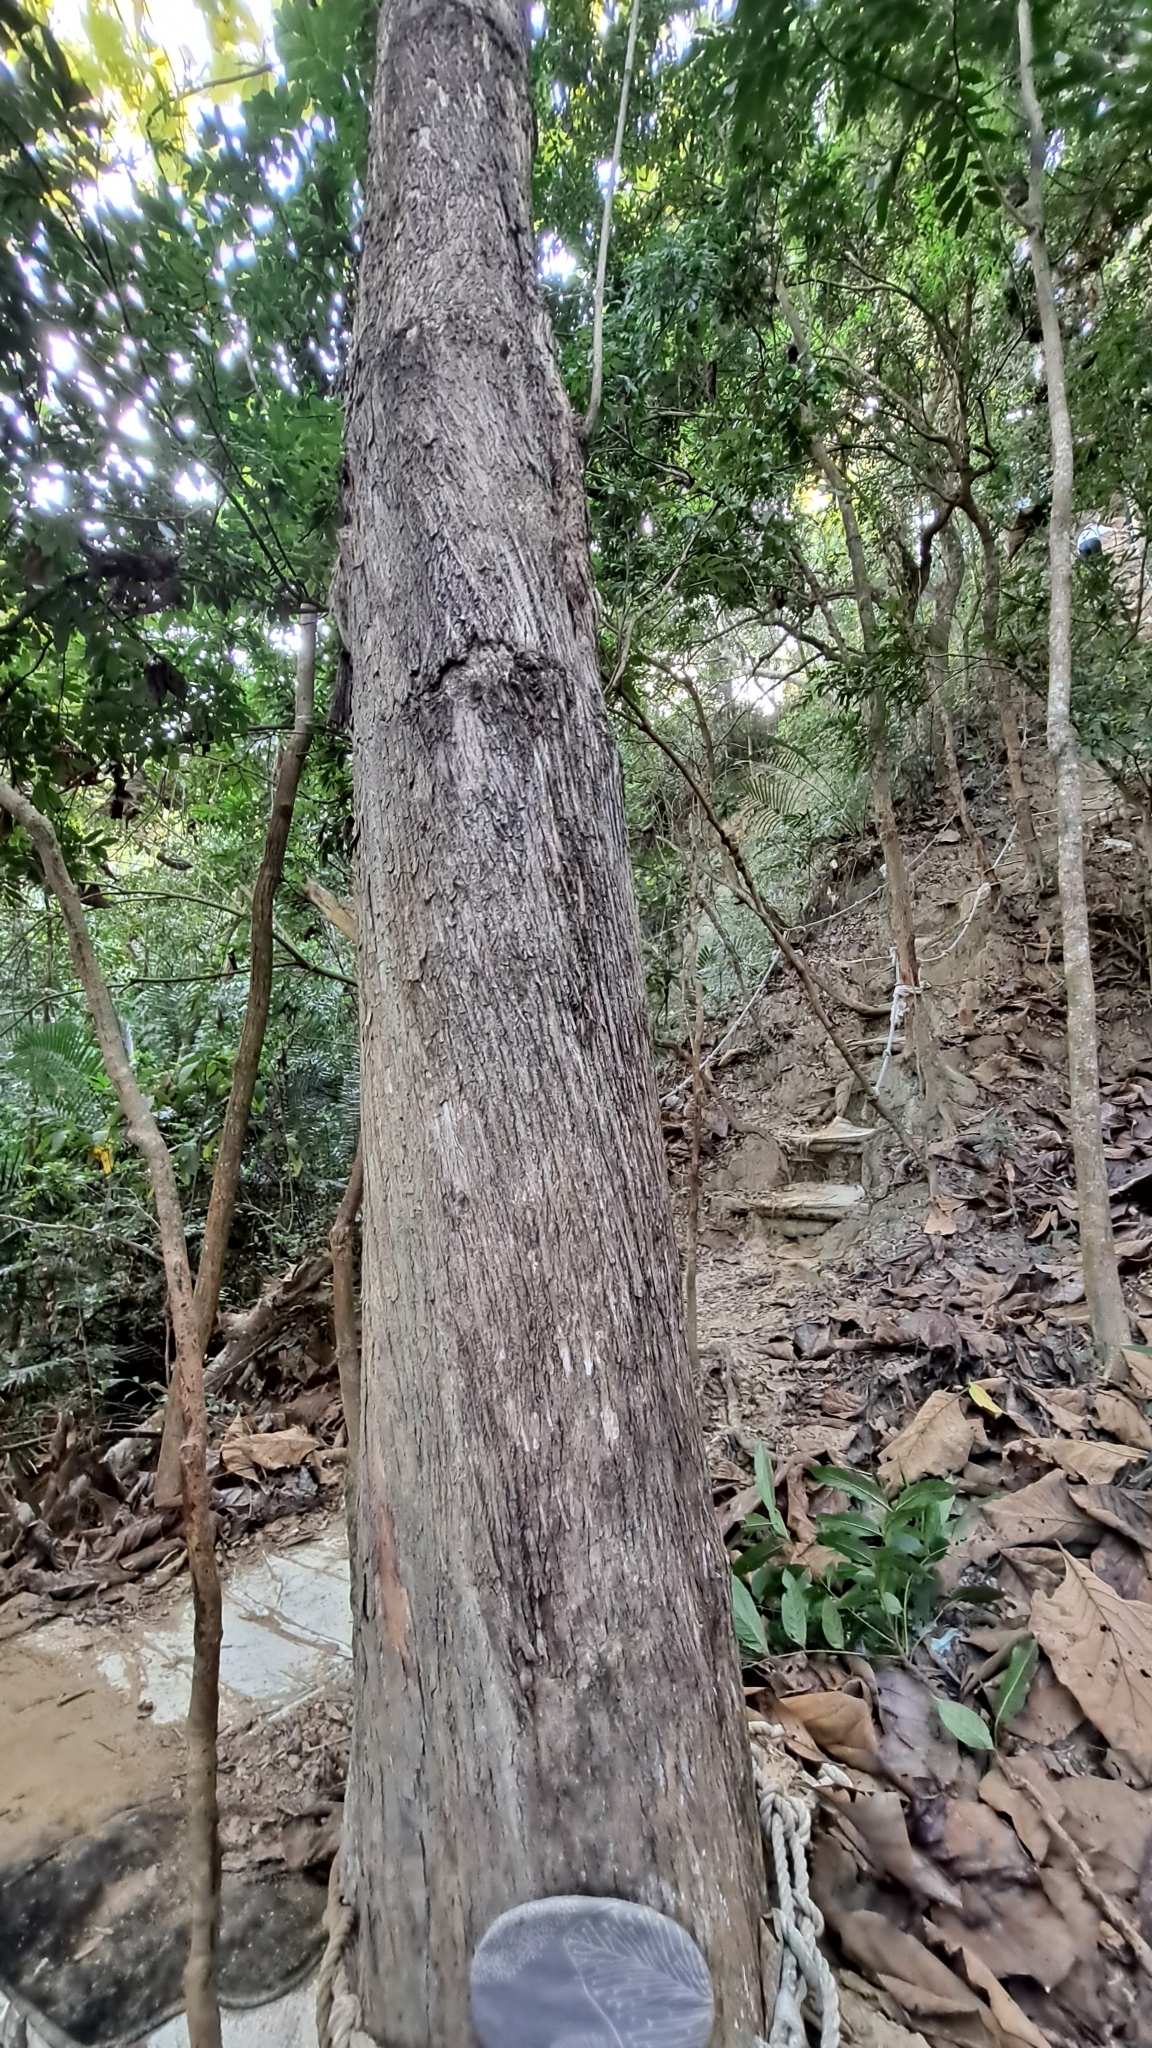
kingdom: Plantae
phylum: Tracheophyta
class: Magnoliopsida
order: Lamiales
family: Lamiaceae
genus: Tectona
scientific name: Tectona grandis
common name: Teak
